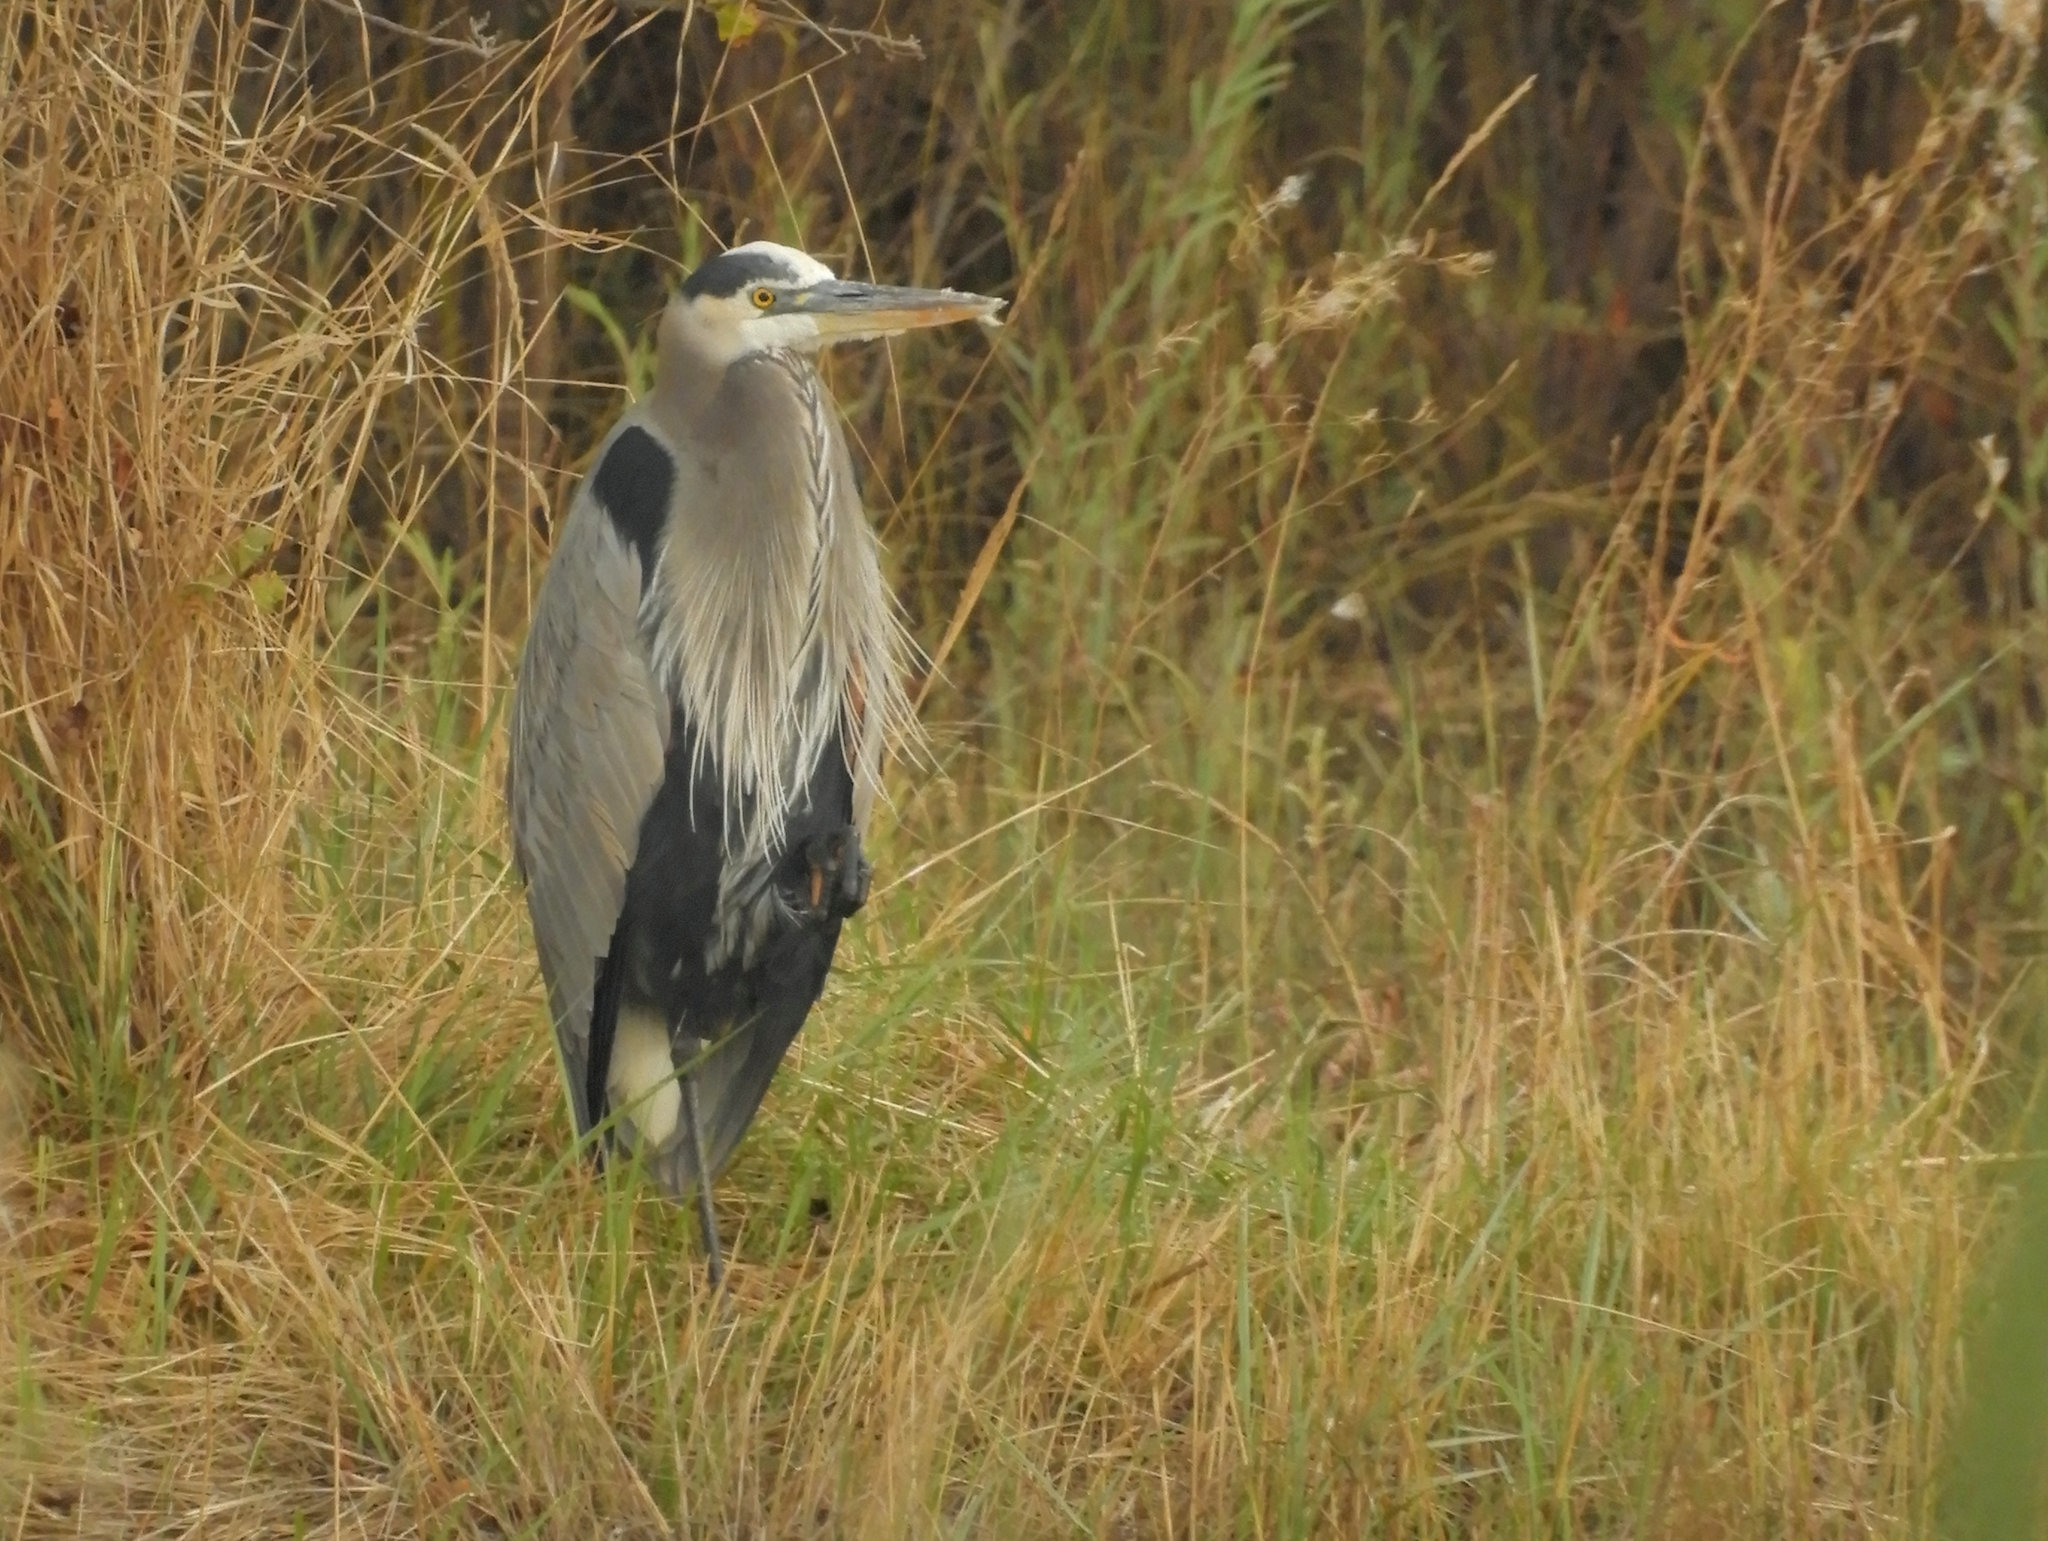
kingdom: Animalia
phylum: Chordata
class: Aves
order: Pelecaniformes
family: Ardeidae
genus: Ardea
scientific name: Ardea herodias
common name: Great blue heron
